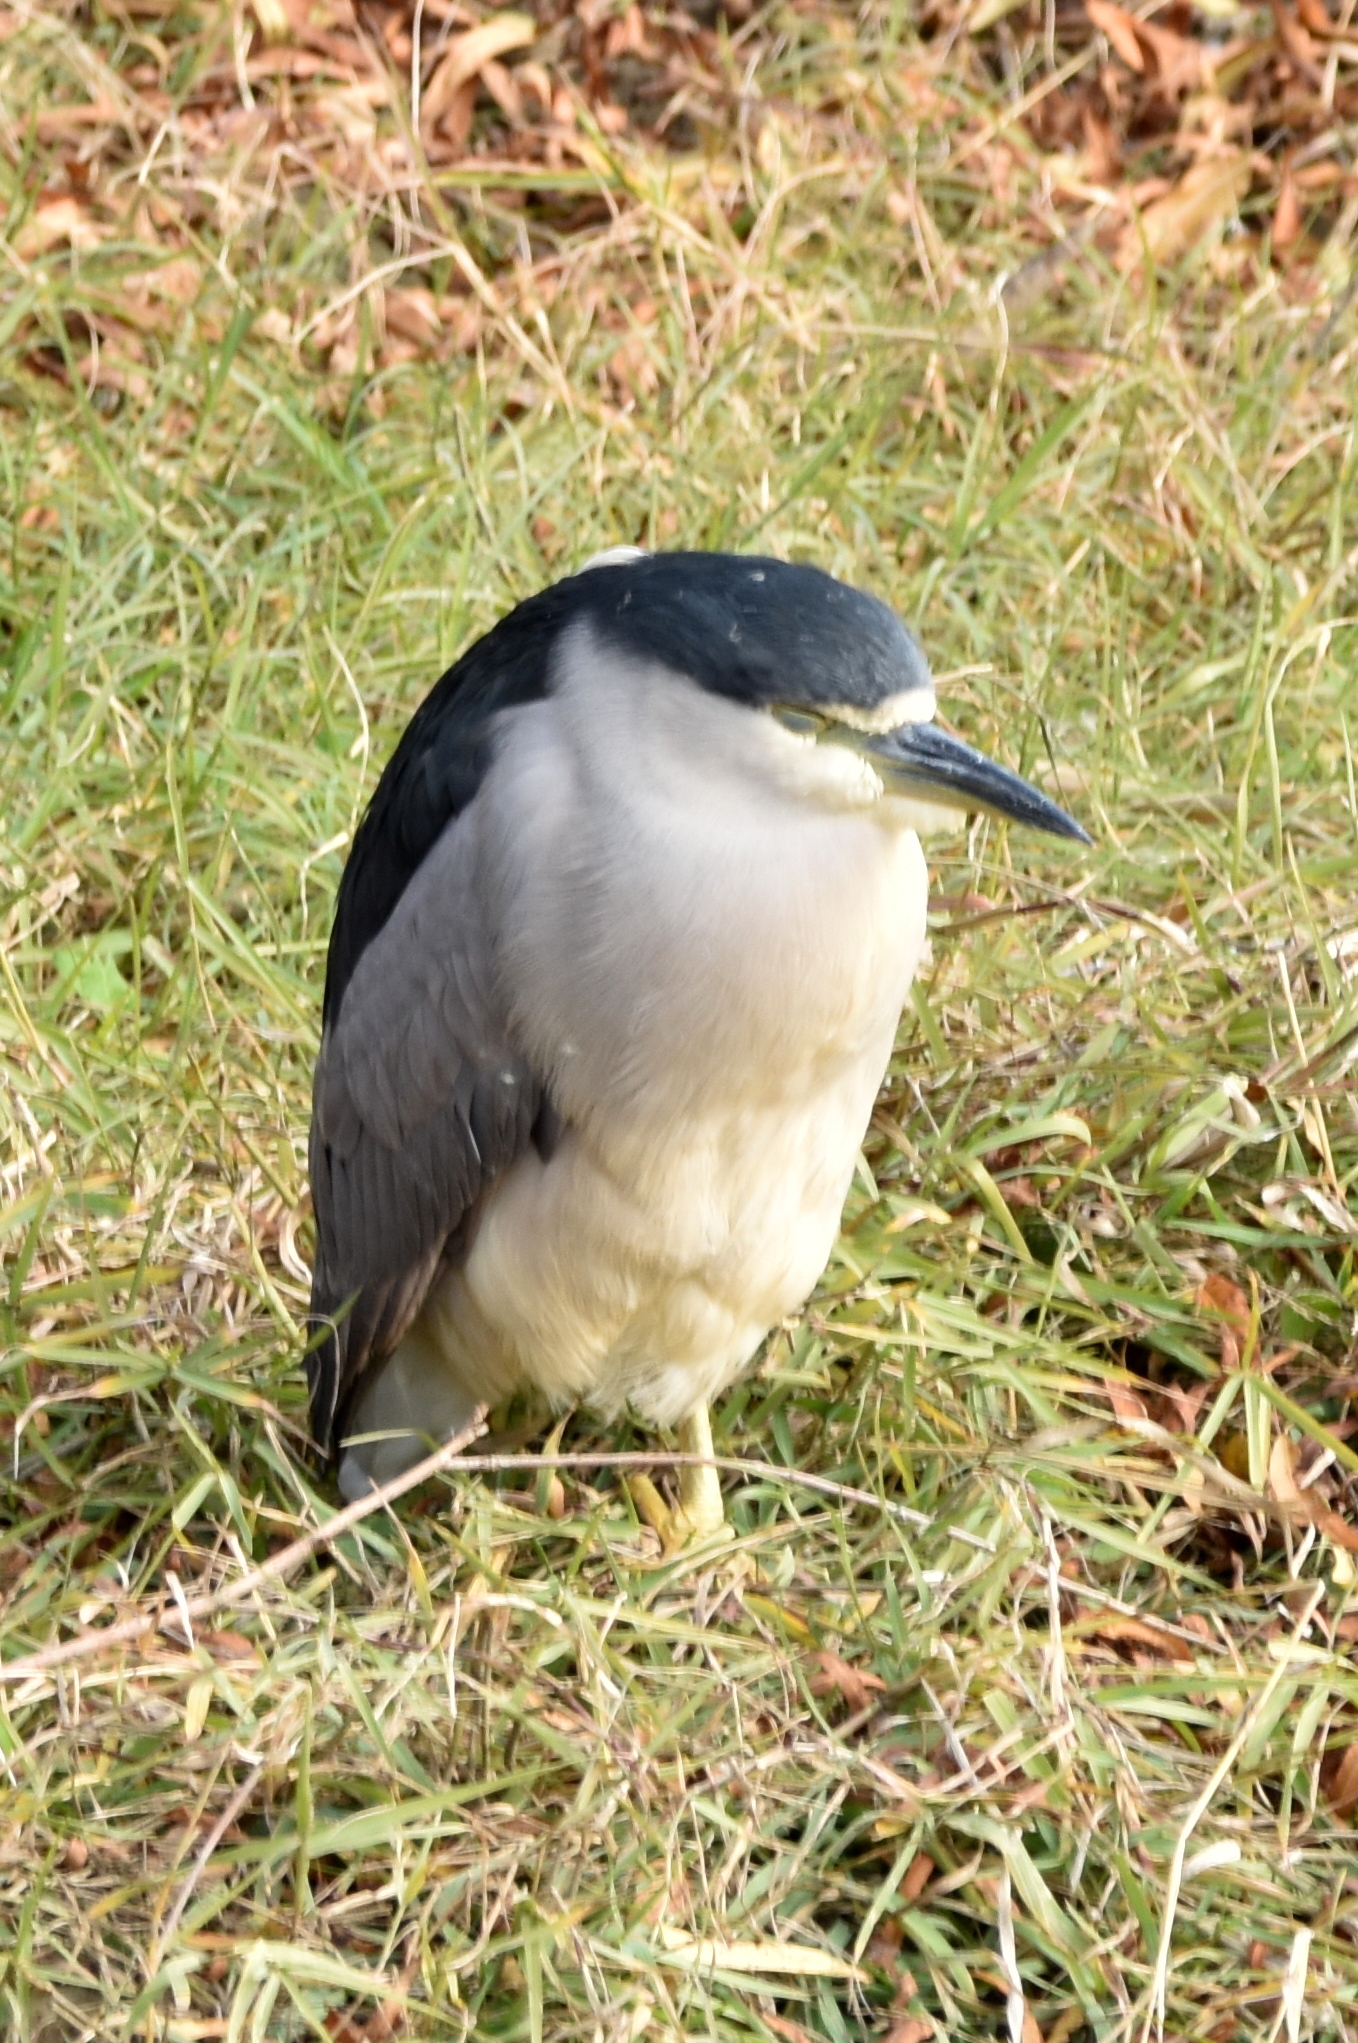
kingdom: Animalia
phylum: Chordata
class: Aves
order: Pelecaniformes
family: Ardeidae
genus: Nycticorax
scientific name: Nycticorax nycticorax
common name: Black-crowned night heron
